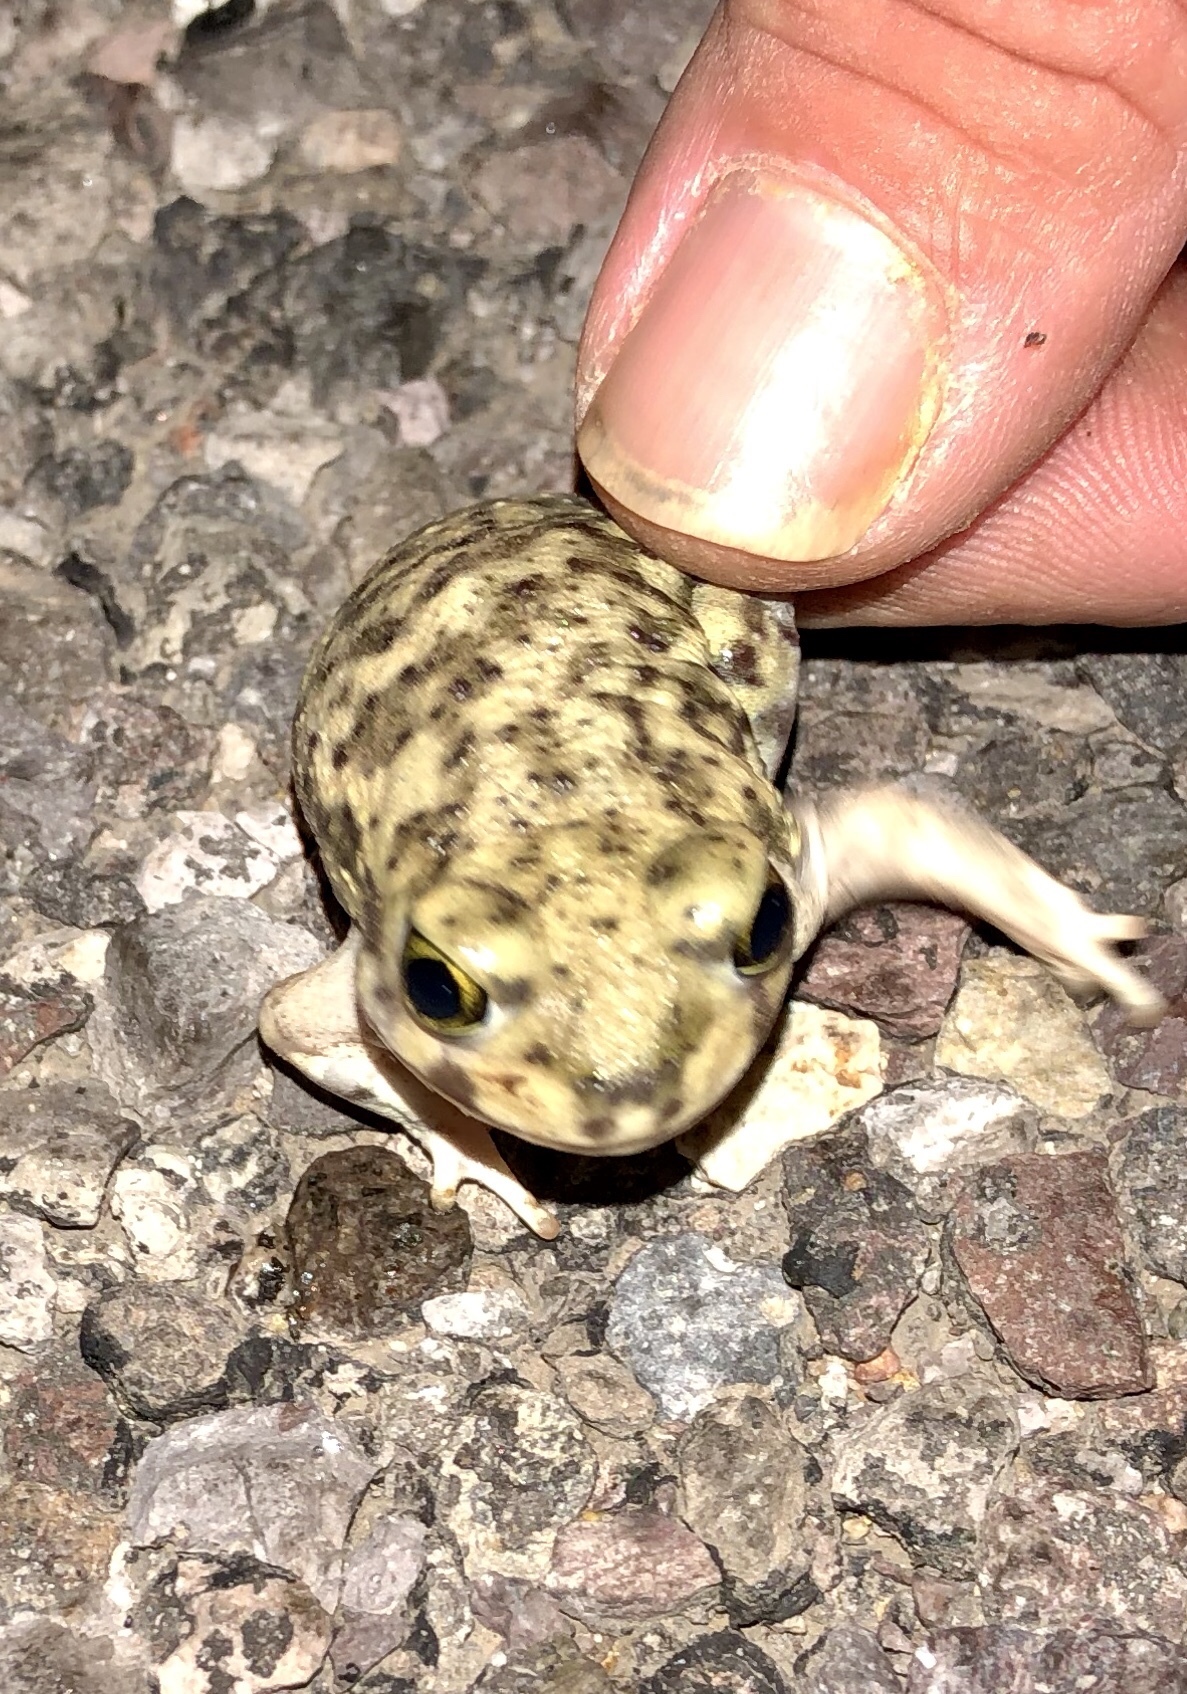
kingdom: Animalia
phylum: Chordata
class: Amphibia
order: Anura
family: Scaphiopodidae
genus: Scaphiopus
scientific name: Scaphiopus couchii
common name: Couch's spadefoot toad
